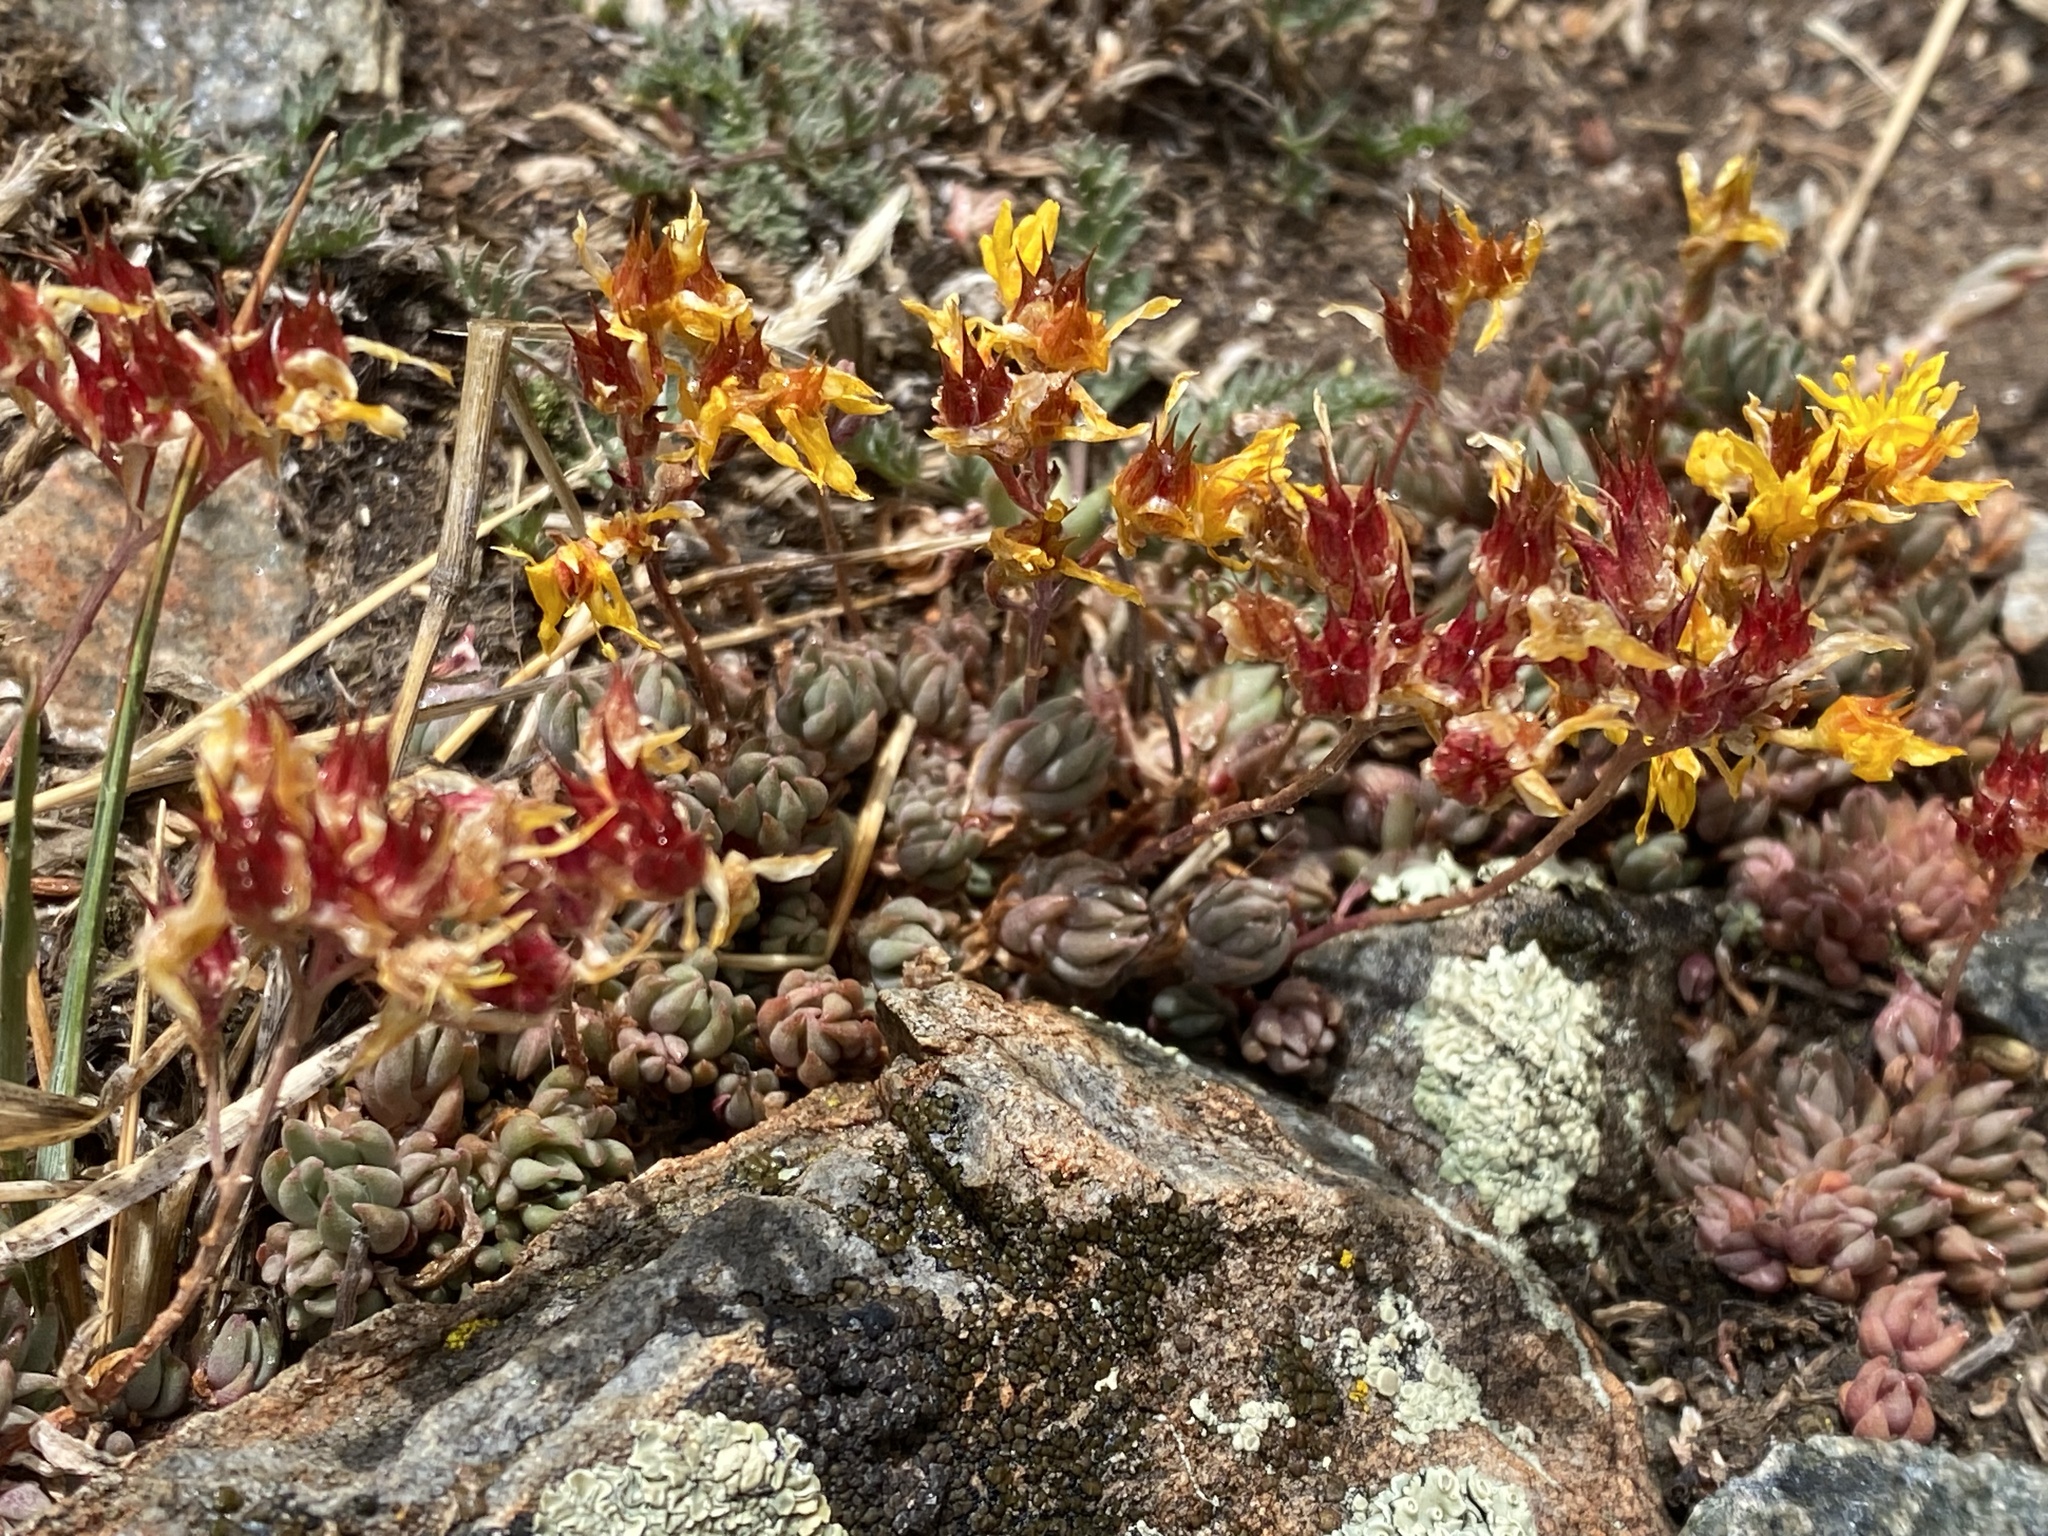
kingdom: Plantae
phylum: Tracheophyta
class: Magnoliopsida
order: Saxifragales
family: Crassulaceae
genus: Sedum
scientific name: Sedum lanceolatum
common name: Common stonecrop
